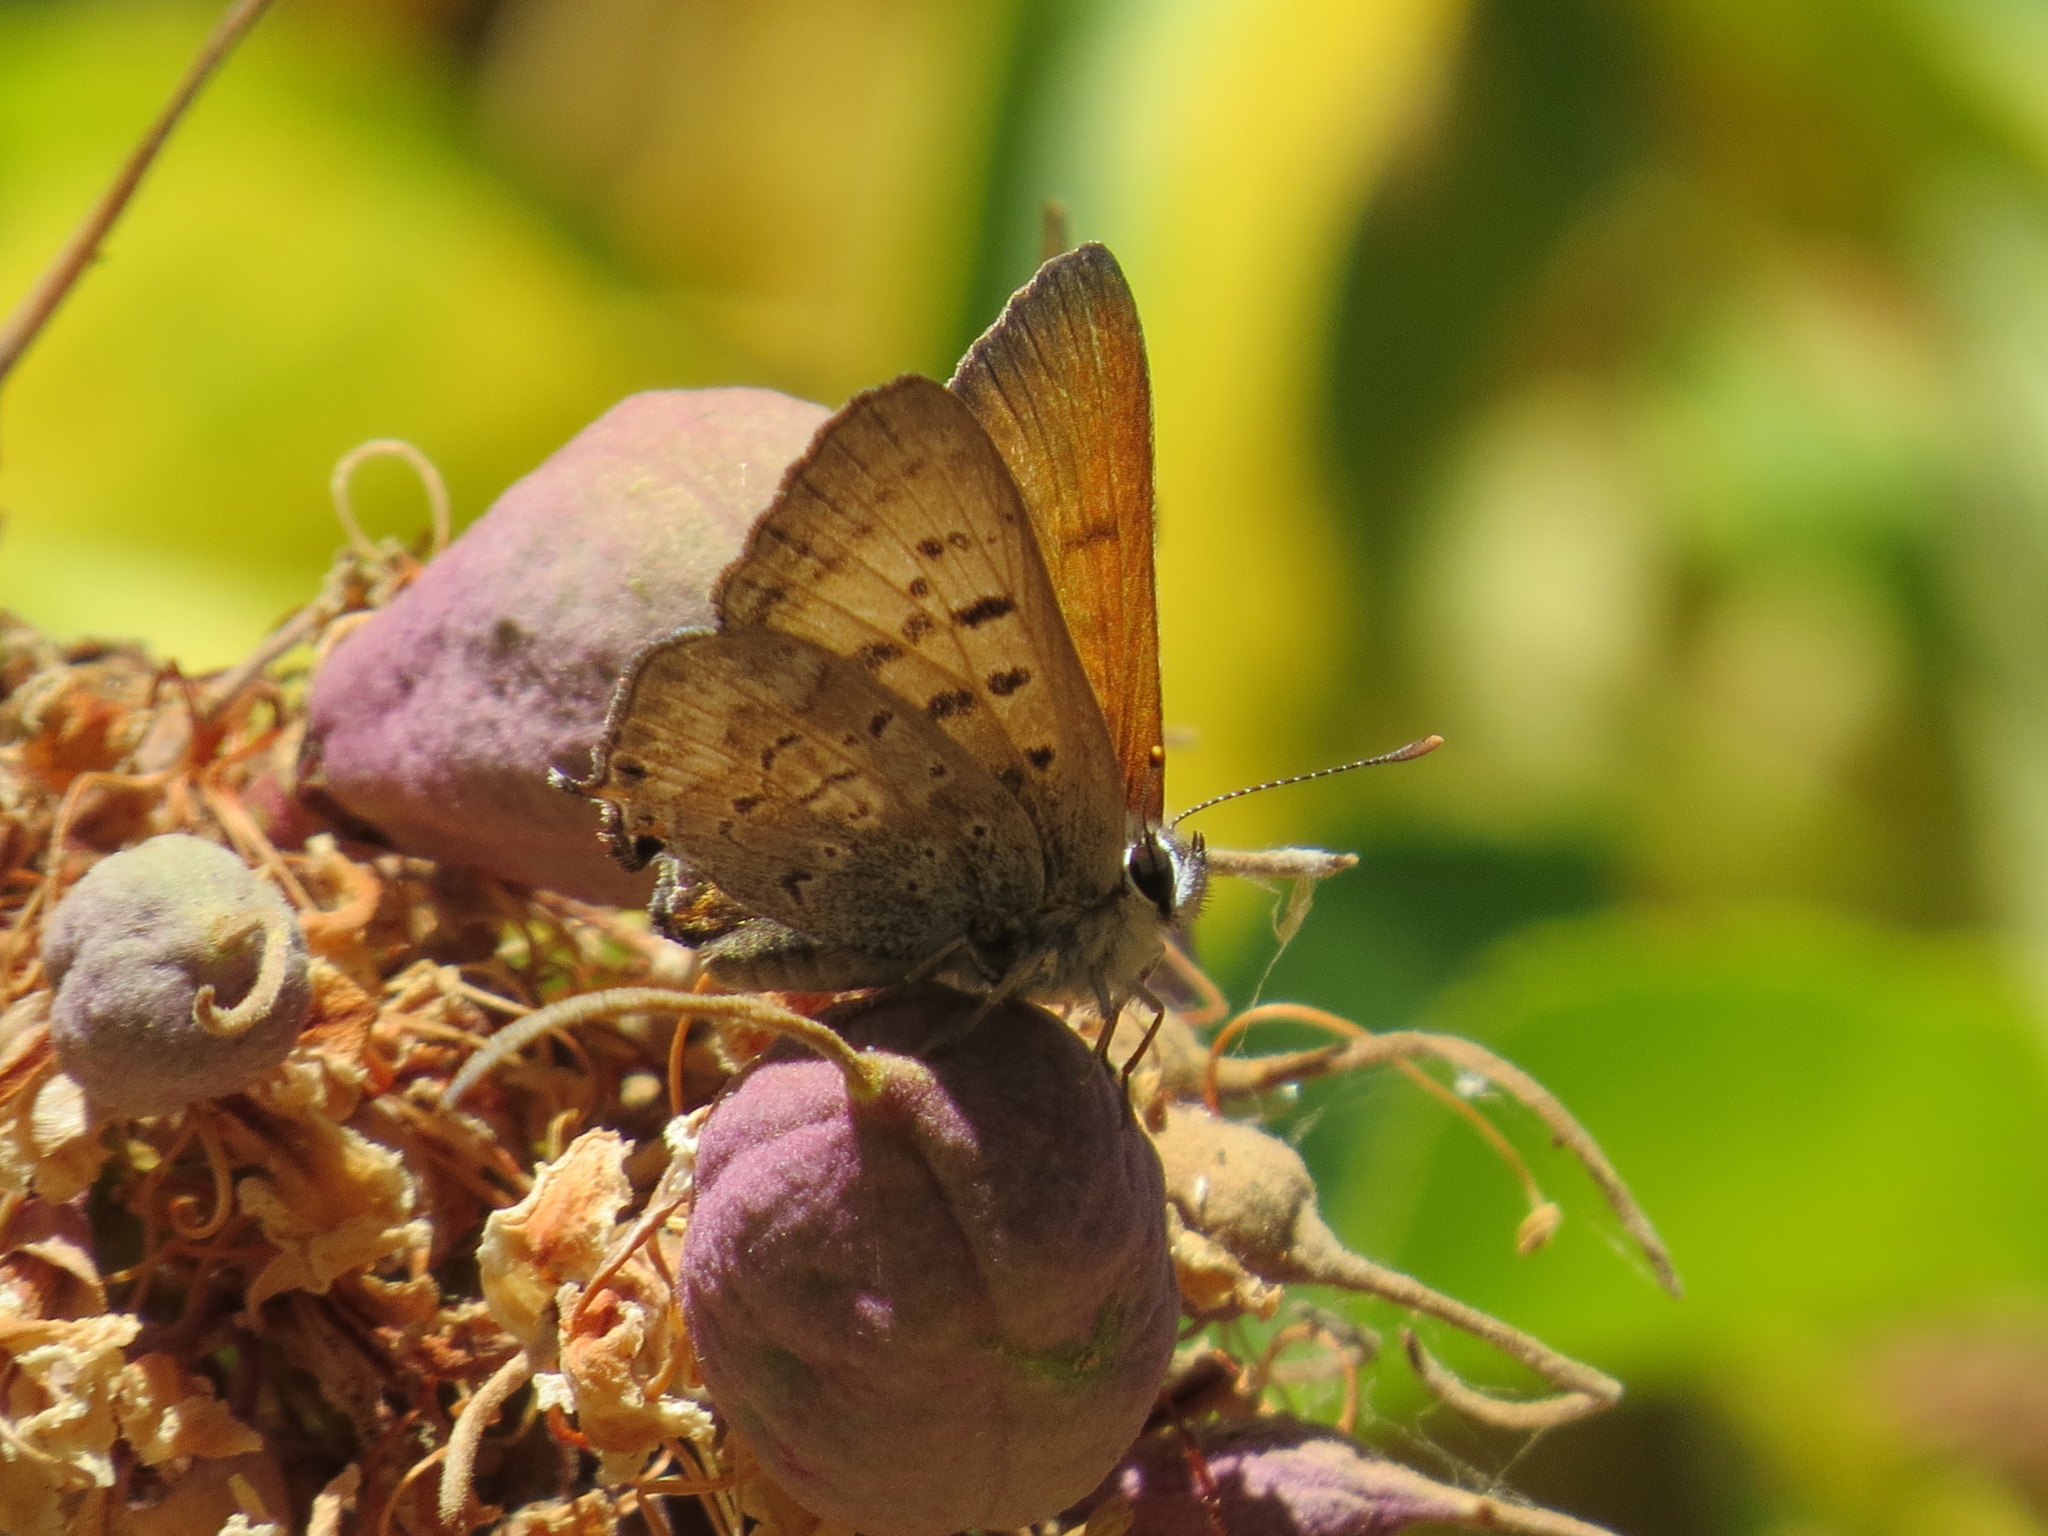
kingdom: Animalia
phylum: Arthropoda
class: Insecta
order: Lepidoptera
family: Lycaenidae
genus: Tharsalea
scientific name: Tharsalea arota
